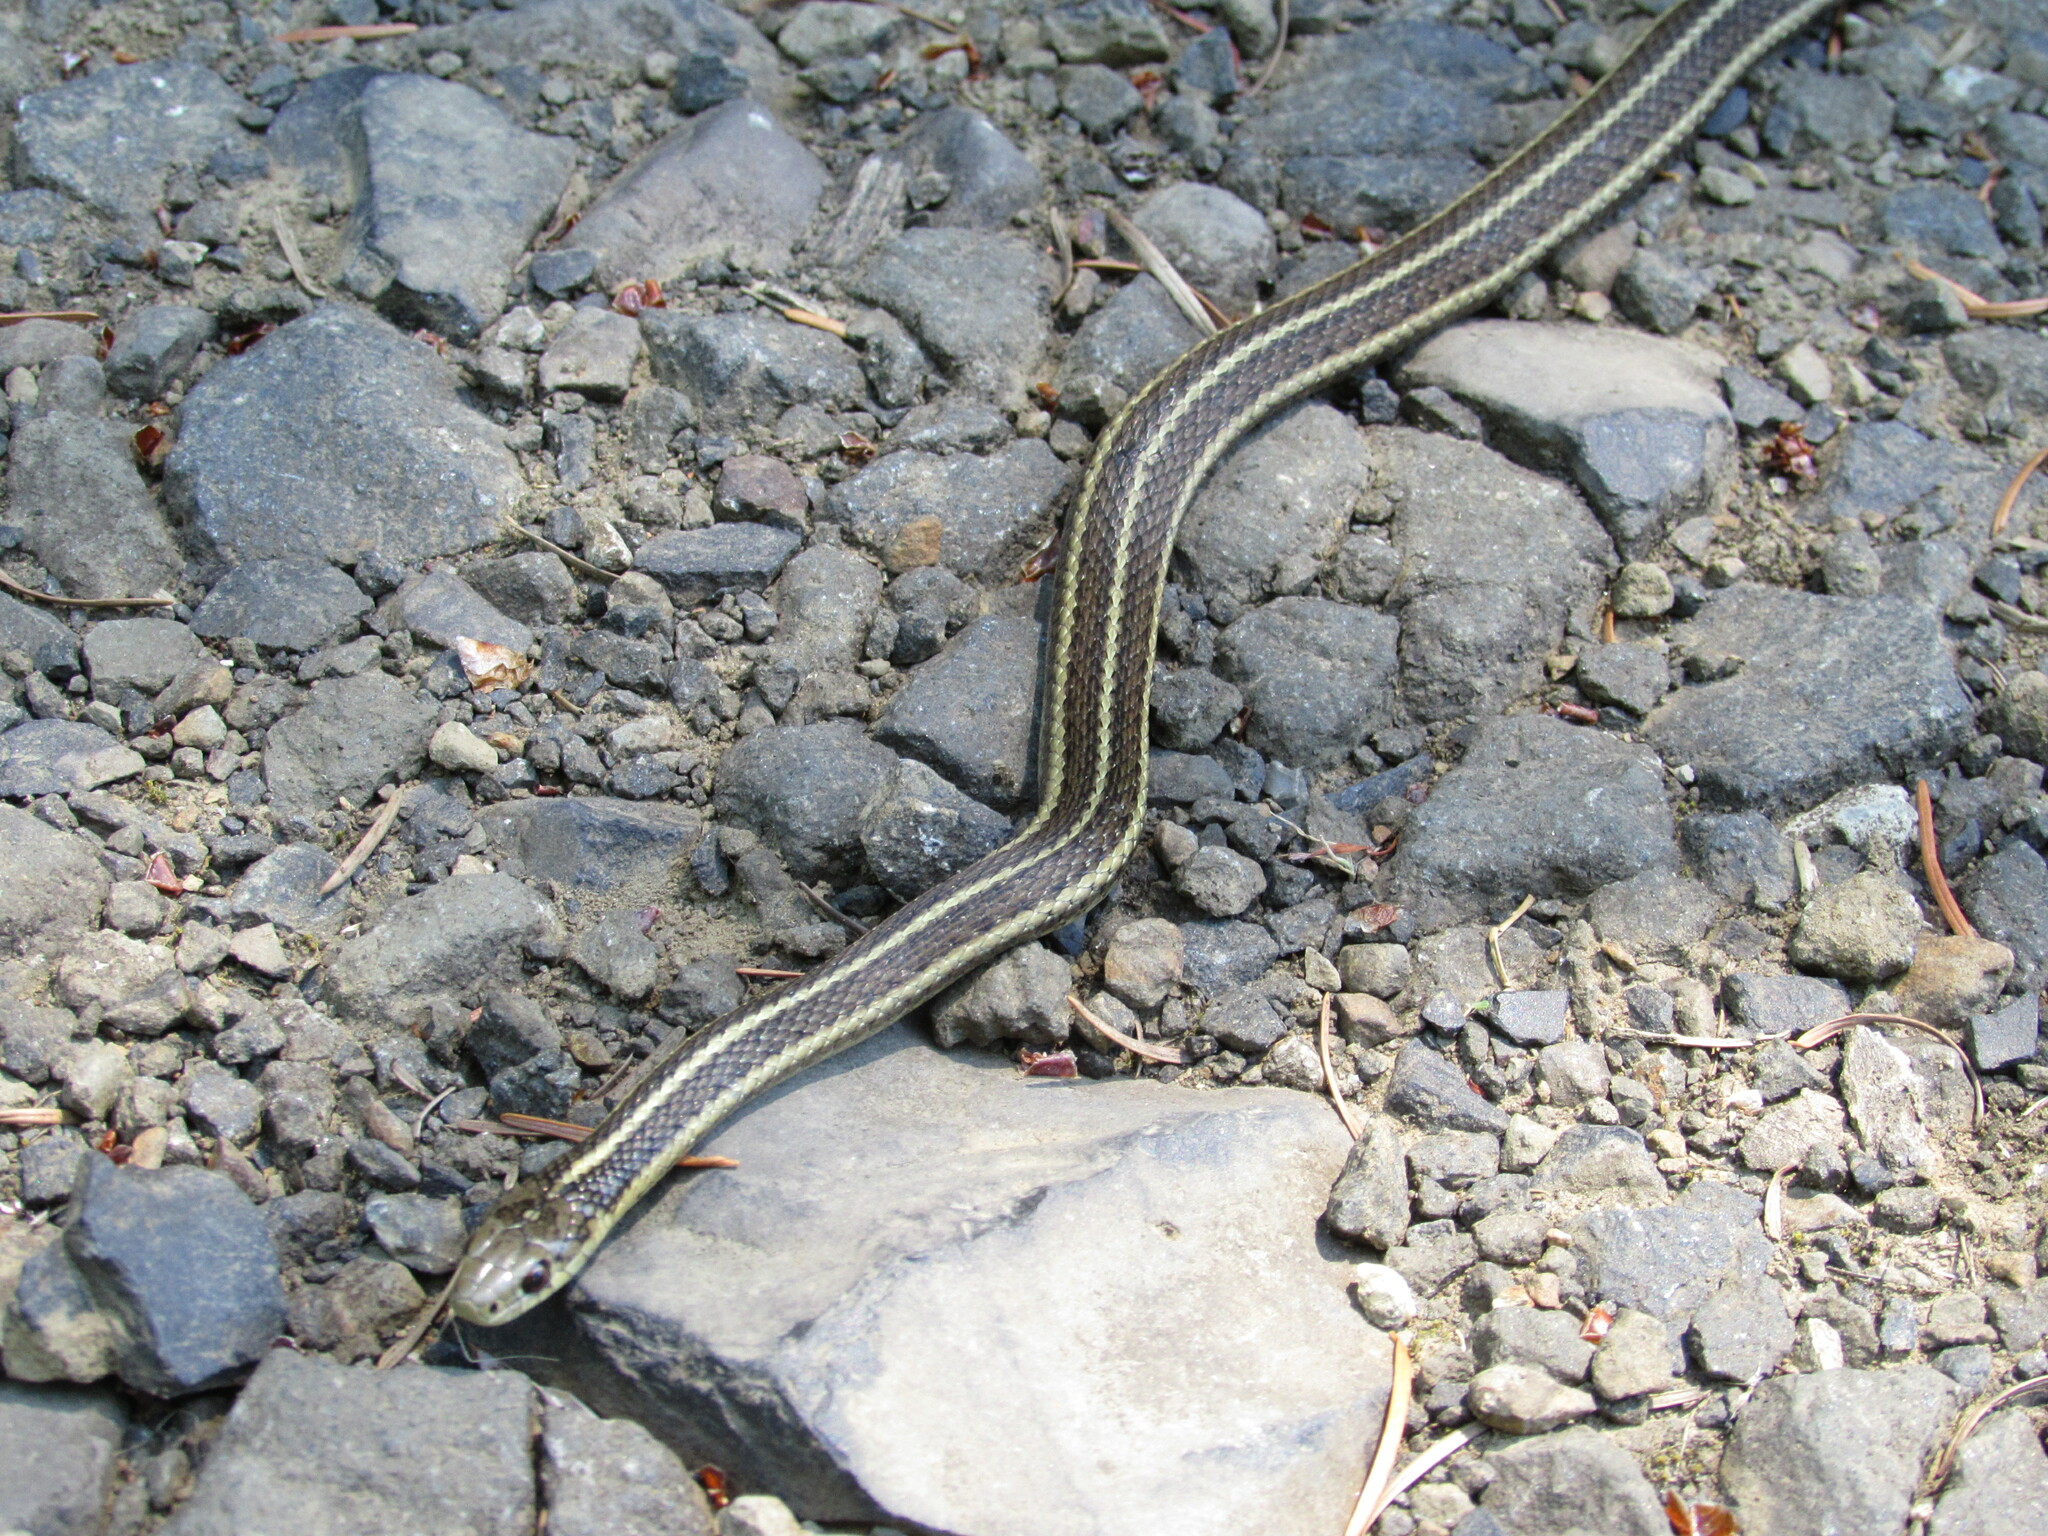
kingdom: Animalia
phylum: Chordata
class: Squamata
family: Colubridae
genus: Thamnophis
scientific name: Thamnophis ordinoides
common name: Northwestern garter snake
